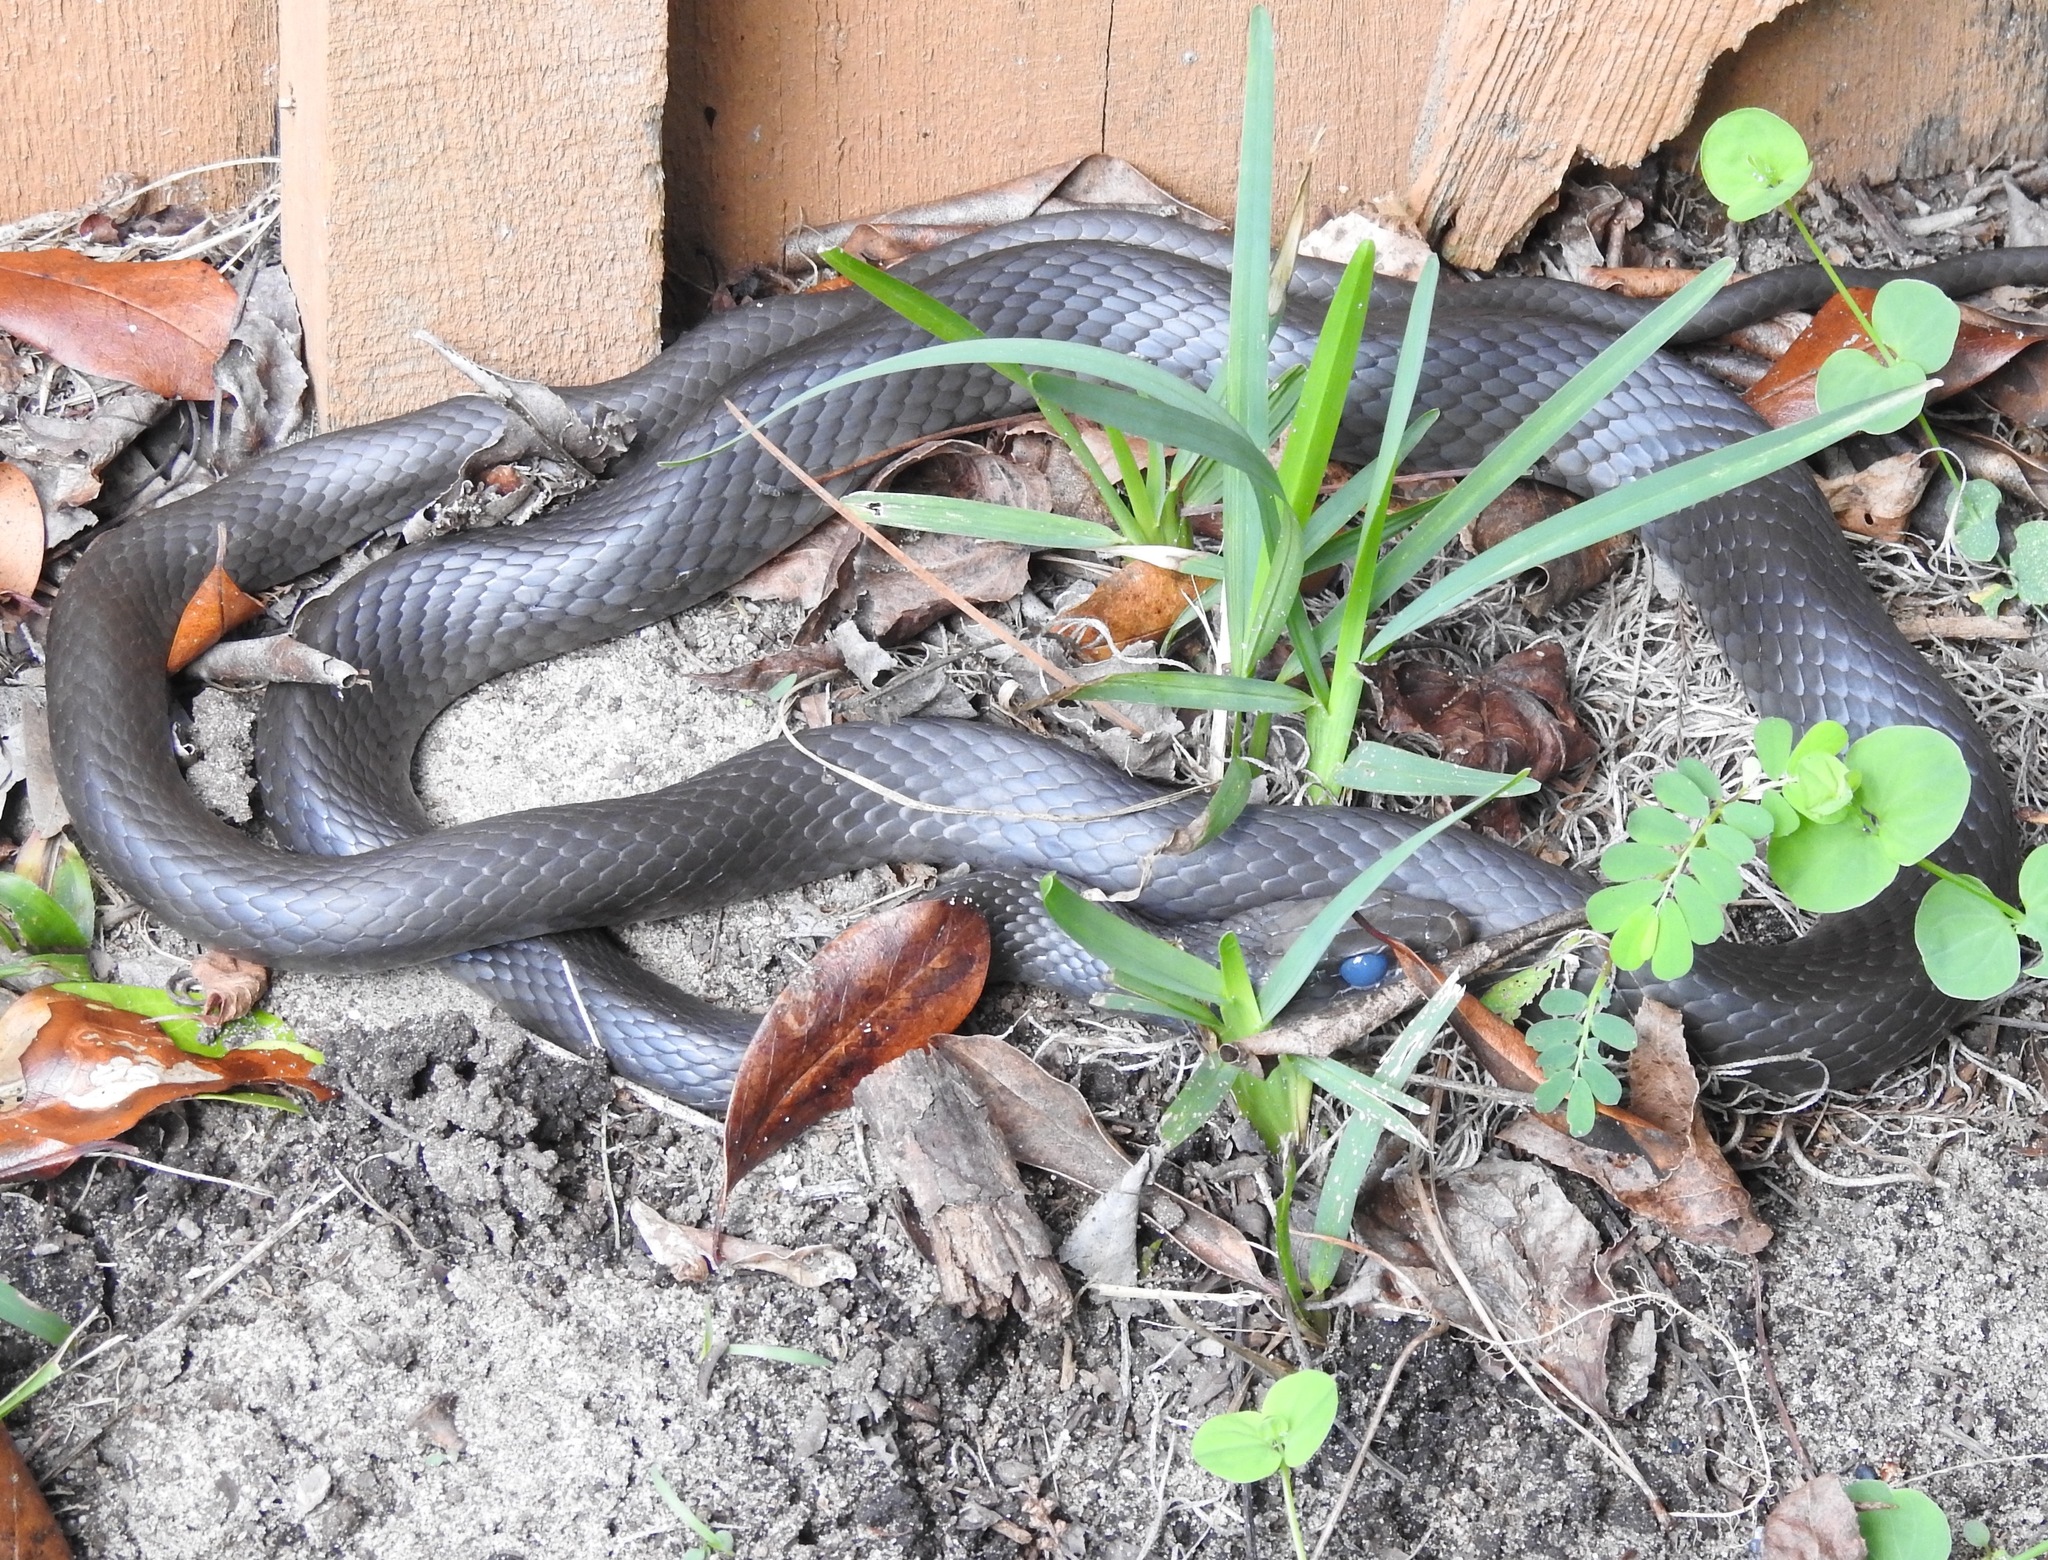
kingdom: Animalia
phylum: Chordata
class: Squamata
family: Colubridae
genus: Coluber
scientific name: Coluber constrictor
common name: Eastern racer
